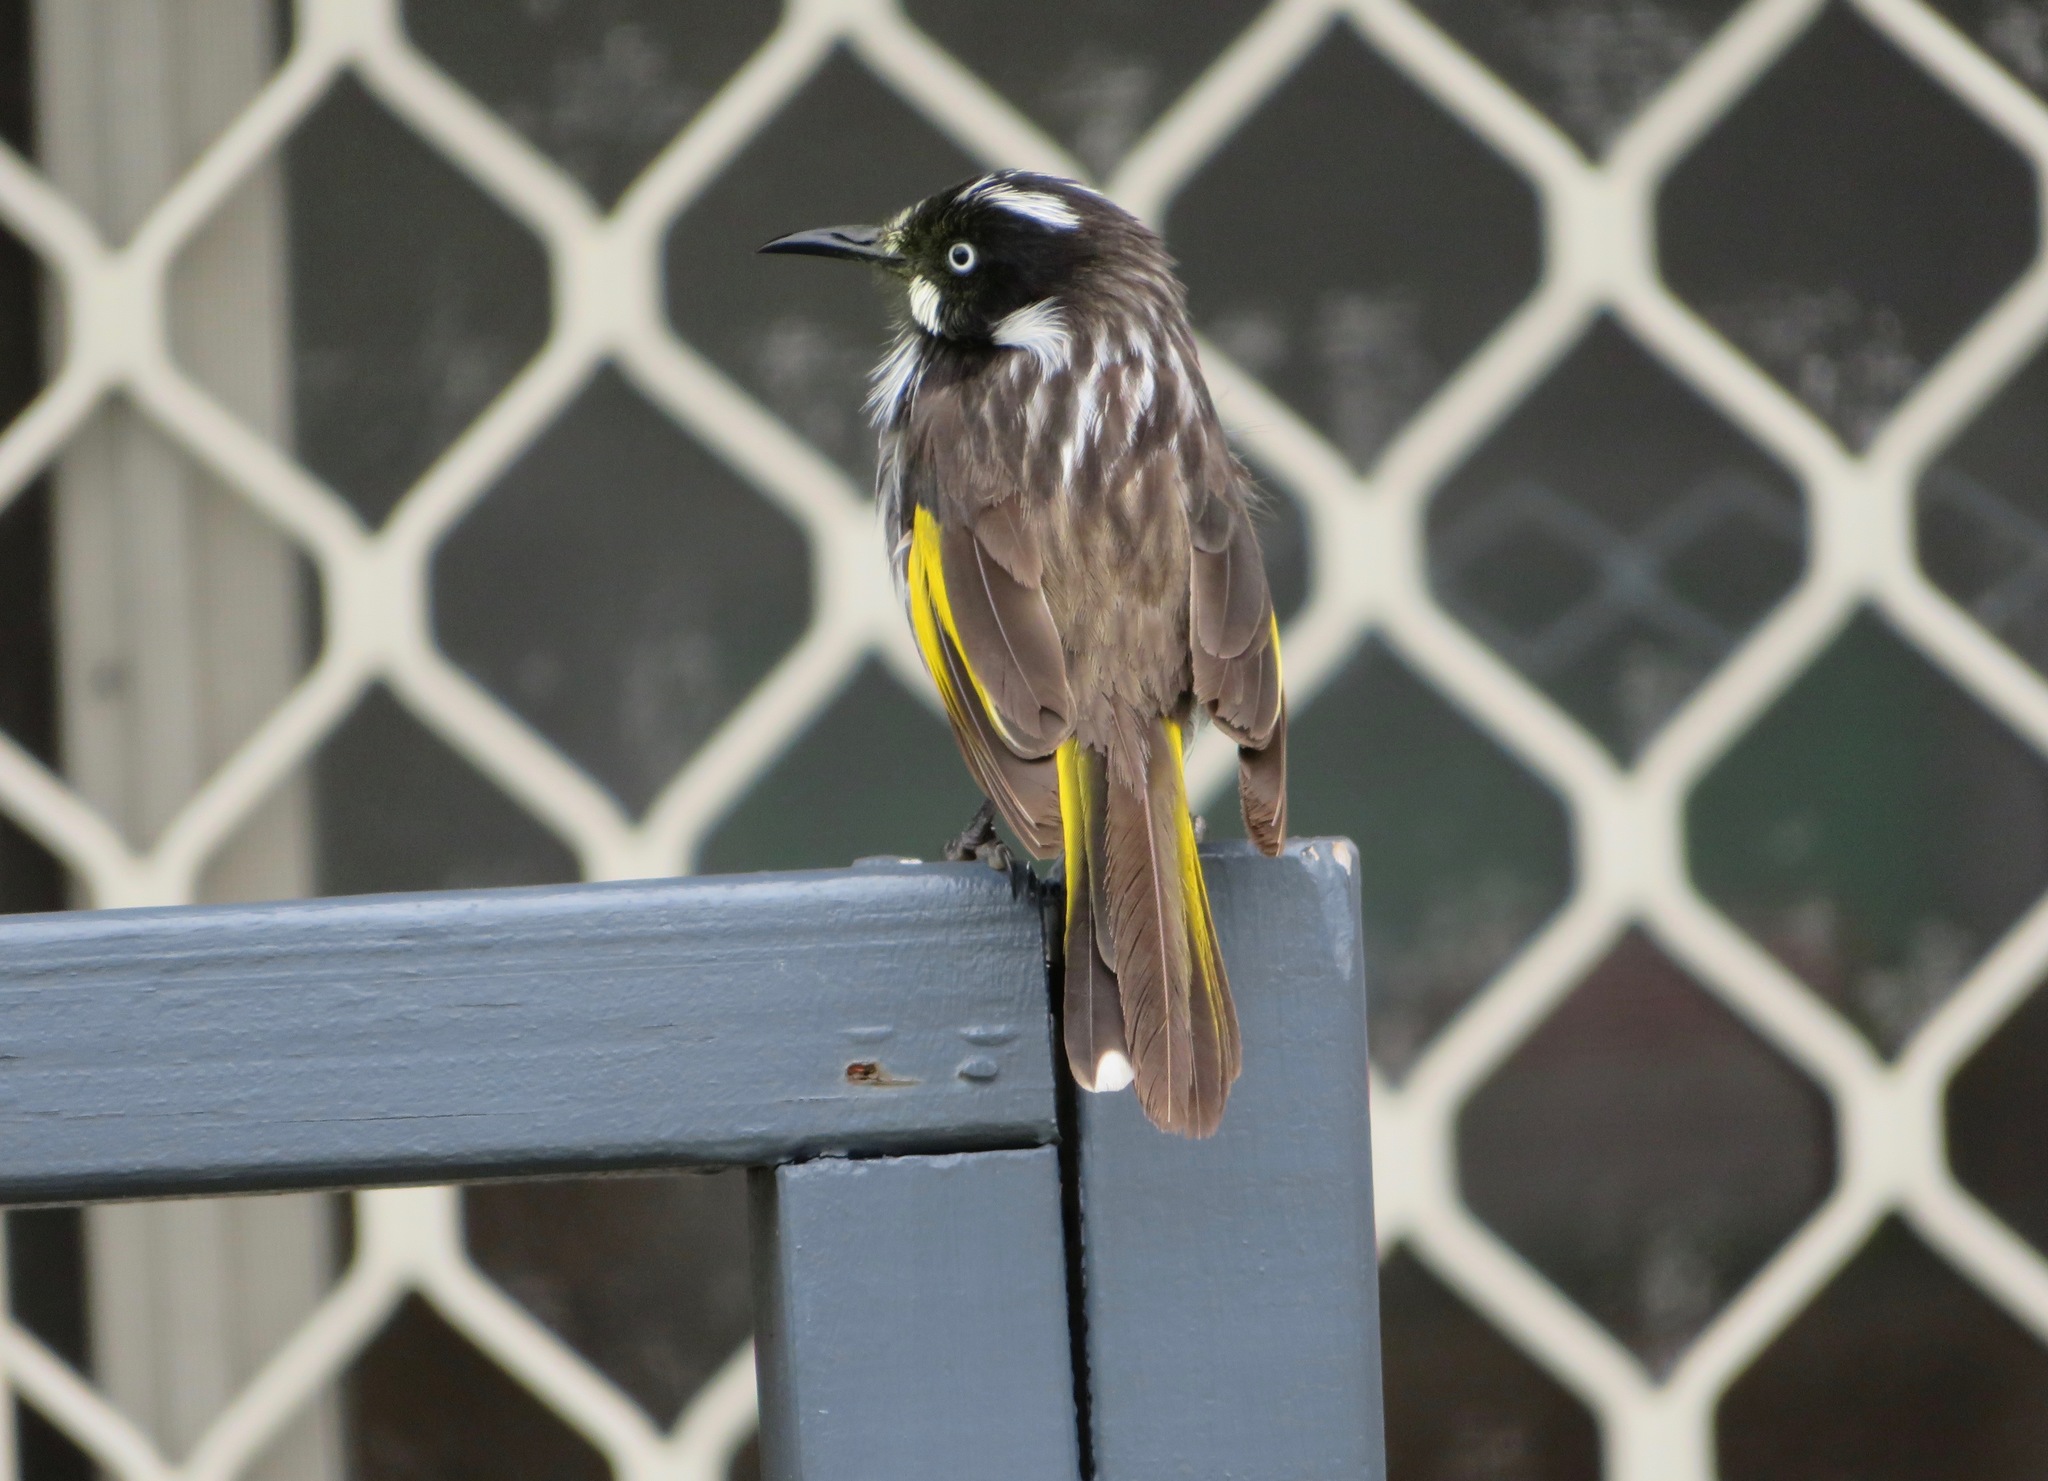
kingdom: Animalia
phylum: Chordata
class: Aves
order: Passeriformes
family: Meliphagidae
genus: Phylidonyris
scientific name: Phylidonyris novaehollandiae
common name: New holland honeyeater
